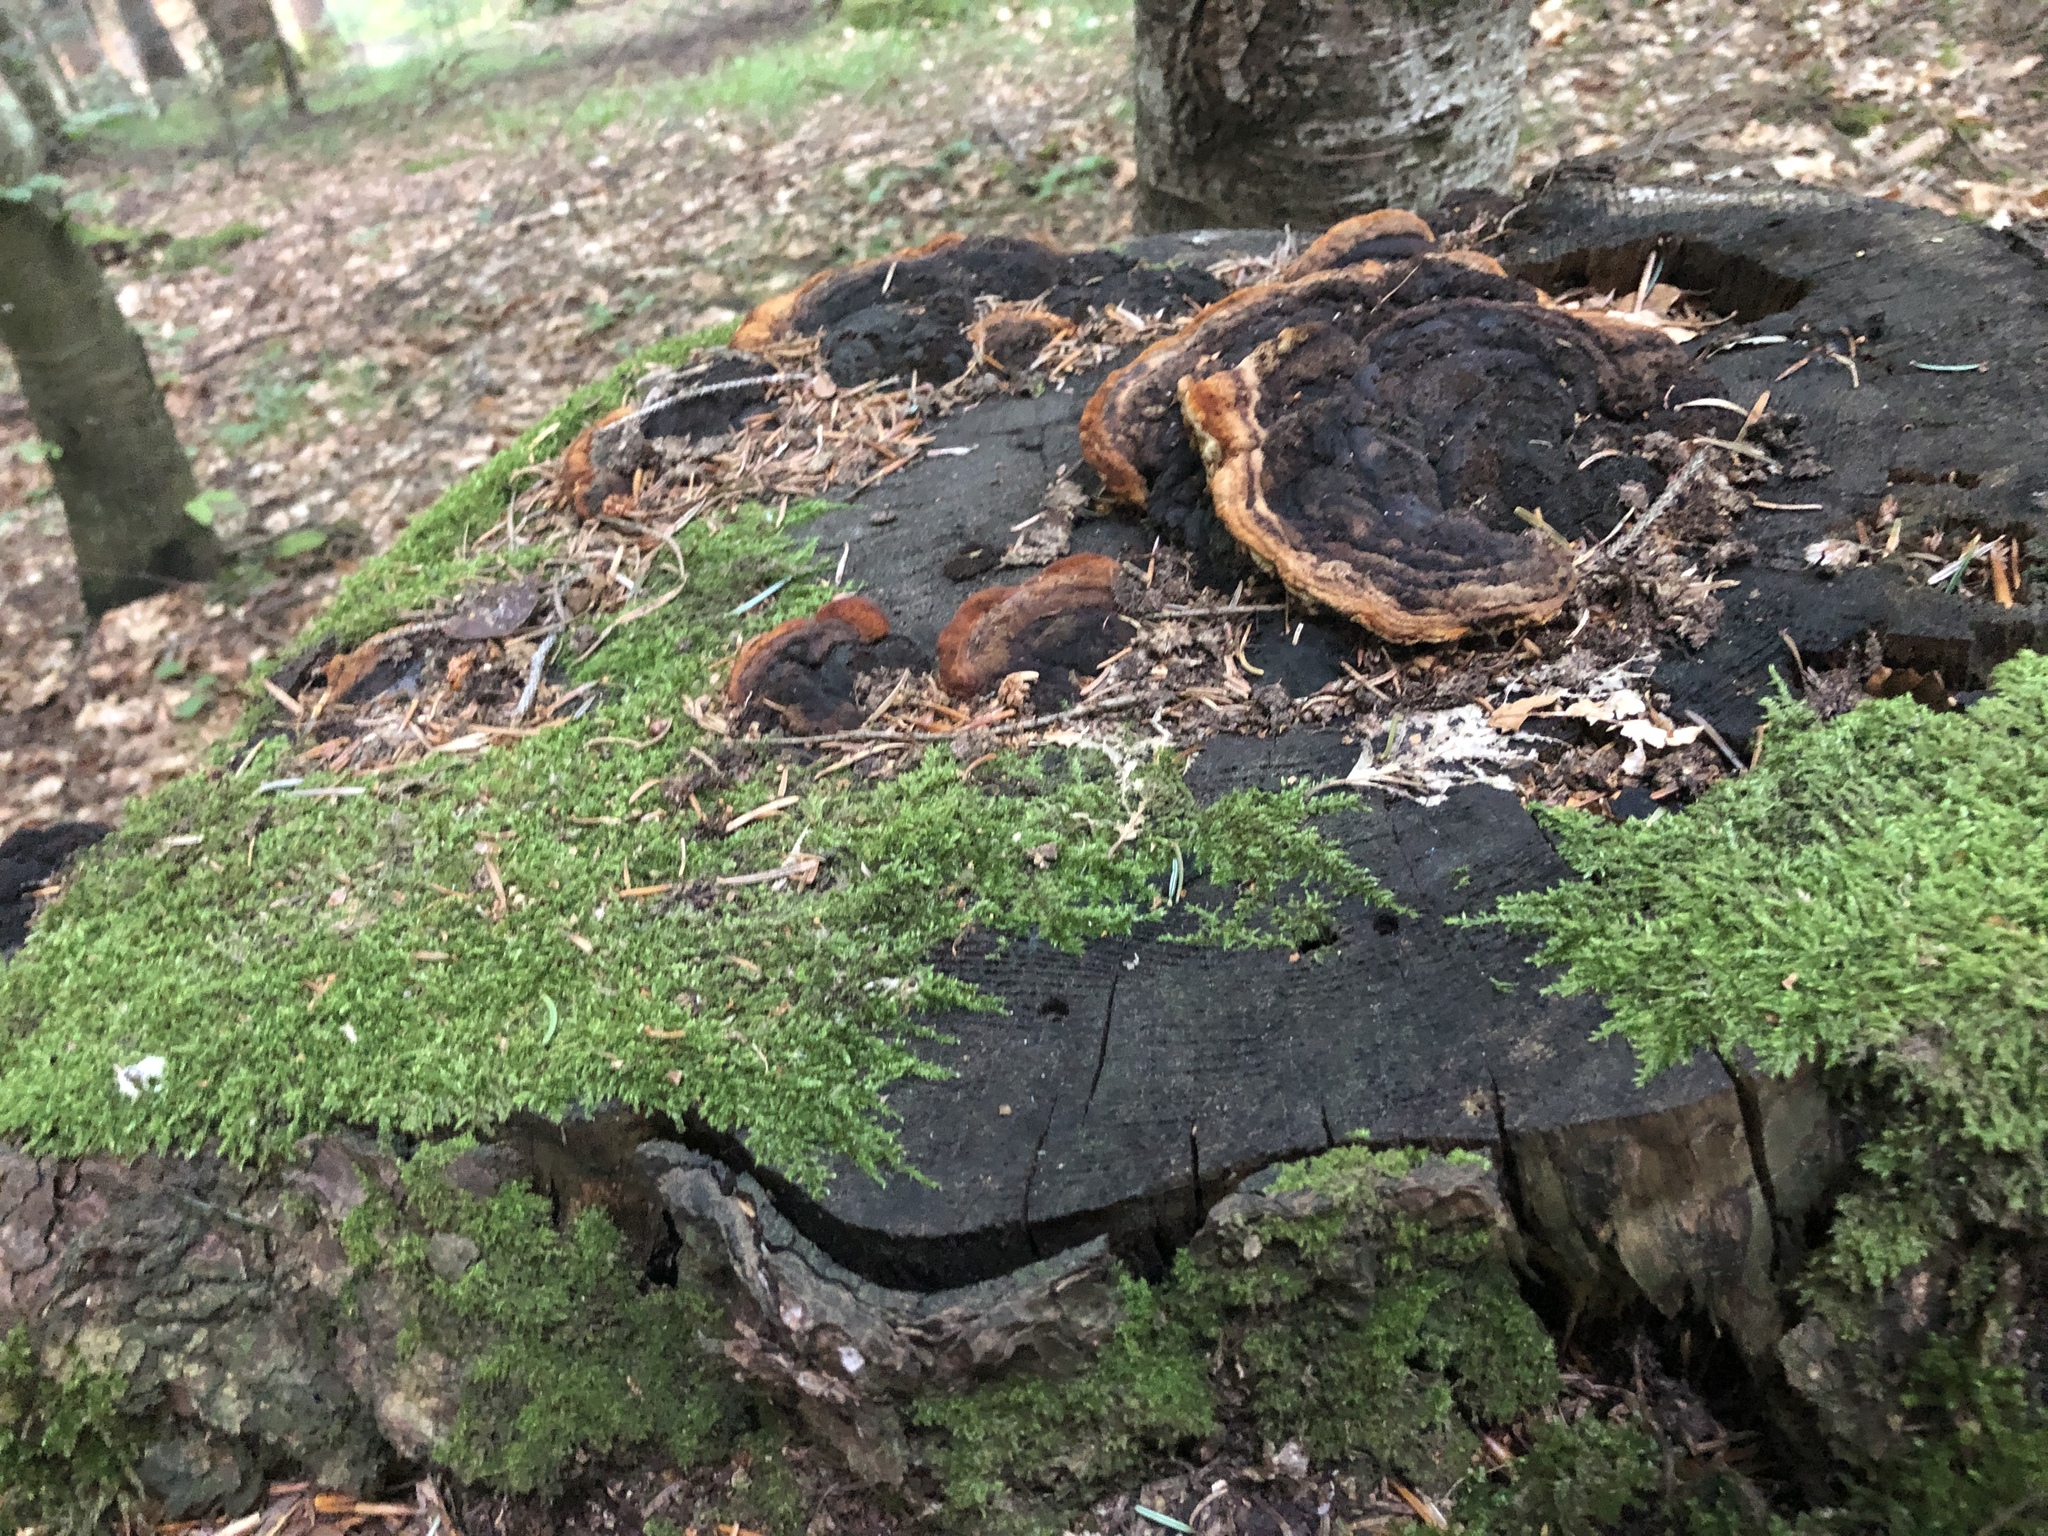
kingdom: Fungi
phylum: Basidiomycota
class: Agaricomycetes
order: Gloeophyllales
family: Gloeophyllaceae
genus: Gloeophyllum
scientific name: Gloeophyllum odoratum
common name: Anise mazegill
